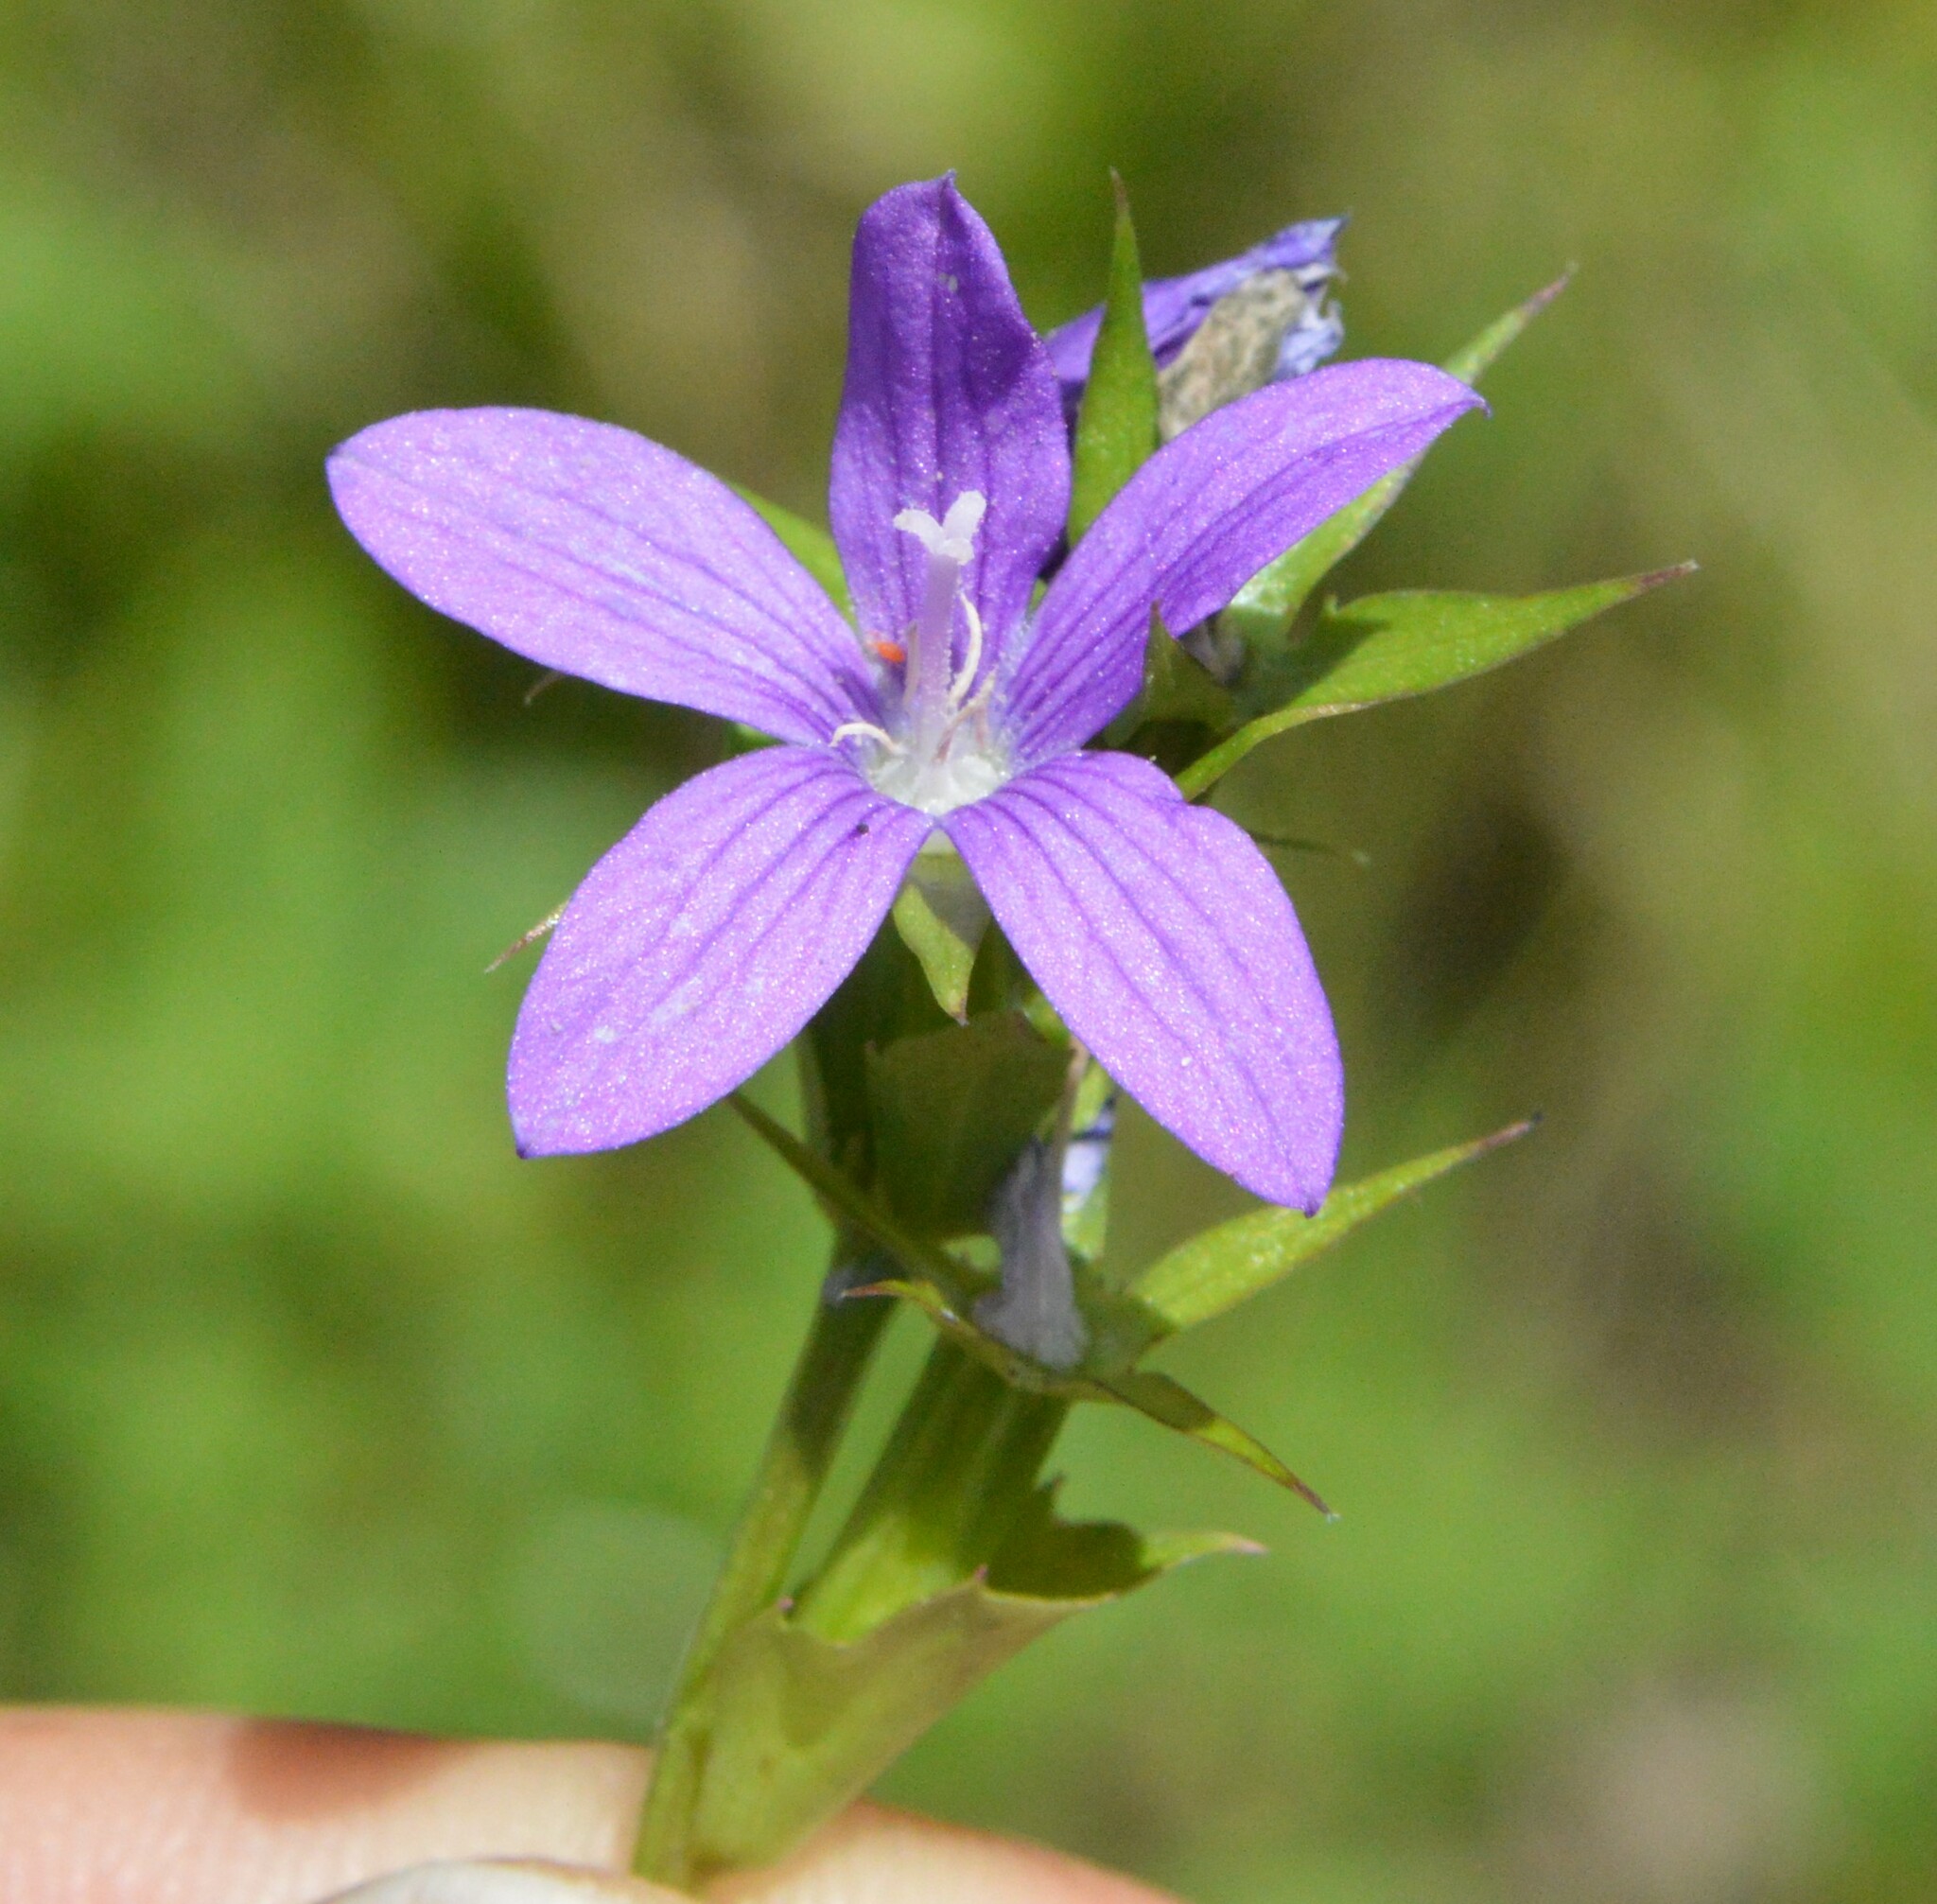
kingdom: Plantae
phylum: Tracheophyta
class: Magnoliopsida
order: Asterales
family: Campanulaceae
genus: Triodanis
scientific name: Triodanis biflora
